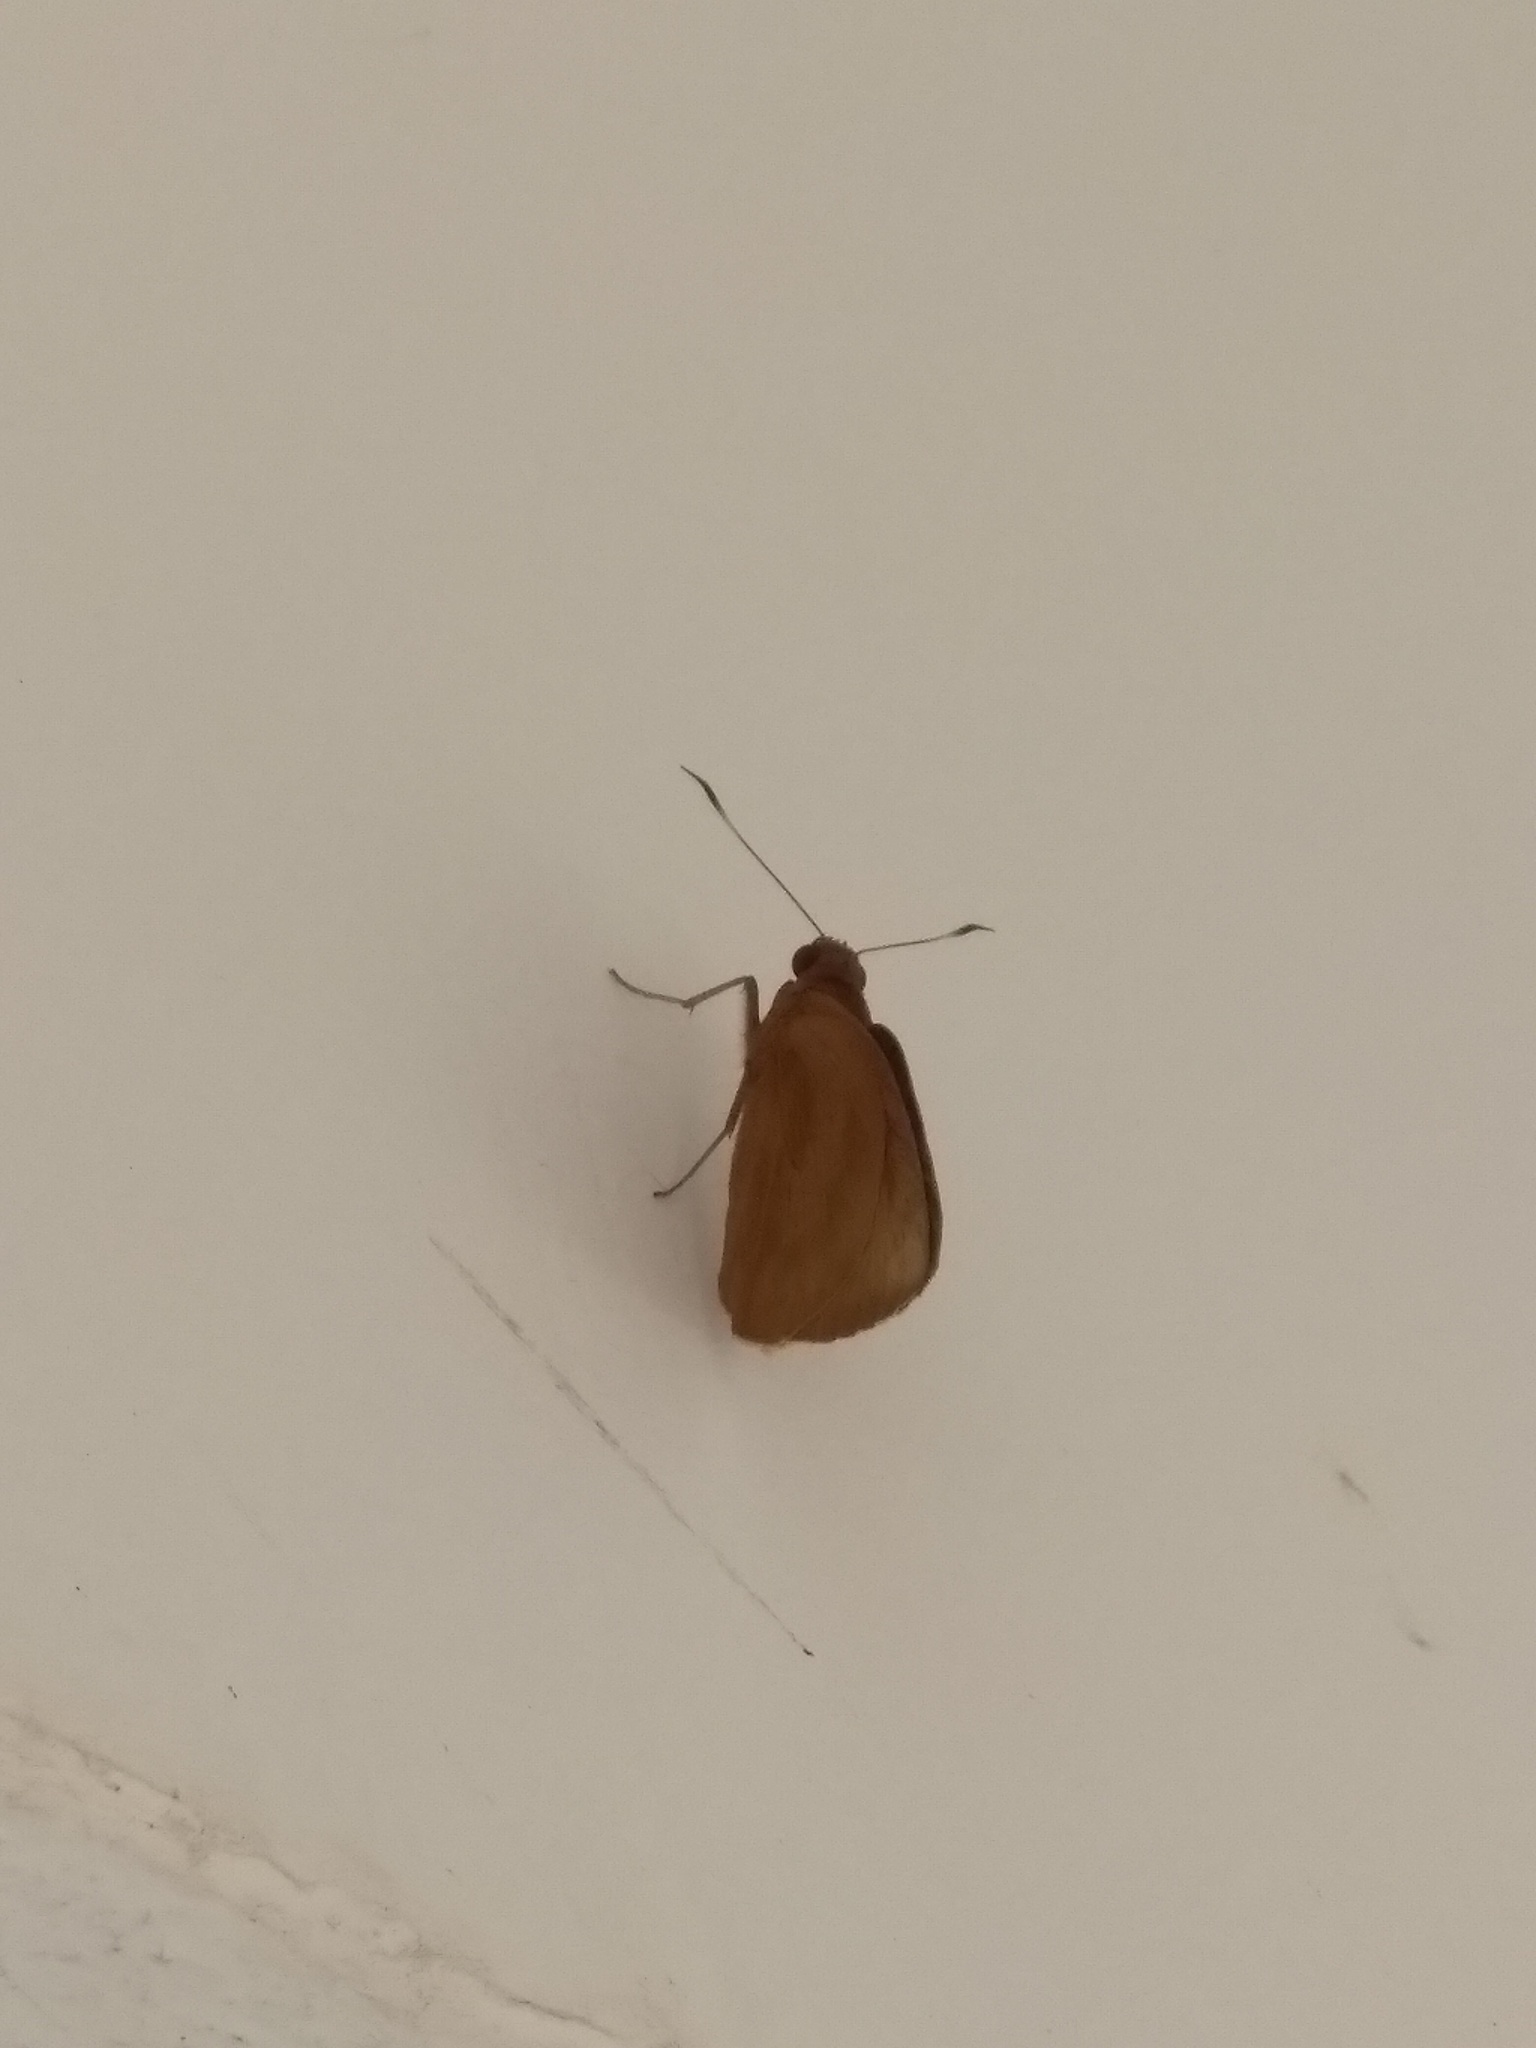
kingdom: Animalia
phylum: Arthropoda
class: Insecta
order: Lepidoptera
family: Hesperiidae
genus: Erionota
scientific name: Erionota thrax
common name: Banana skipper
